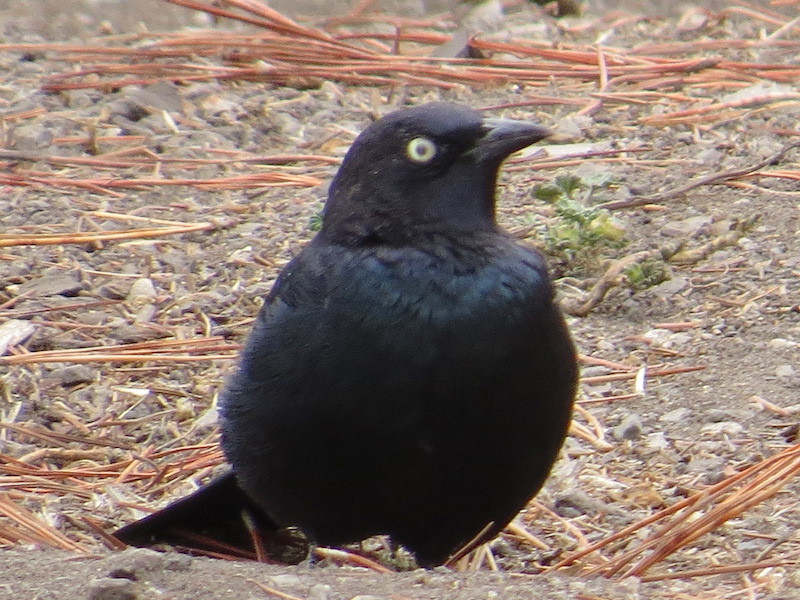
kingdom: Animalia
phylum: Chordata
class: Aves
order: Passeriformes
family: Icteridae
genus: Euphagus
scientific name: Euphagus cyanocephalus
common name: Brewer's blackbird
